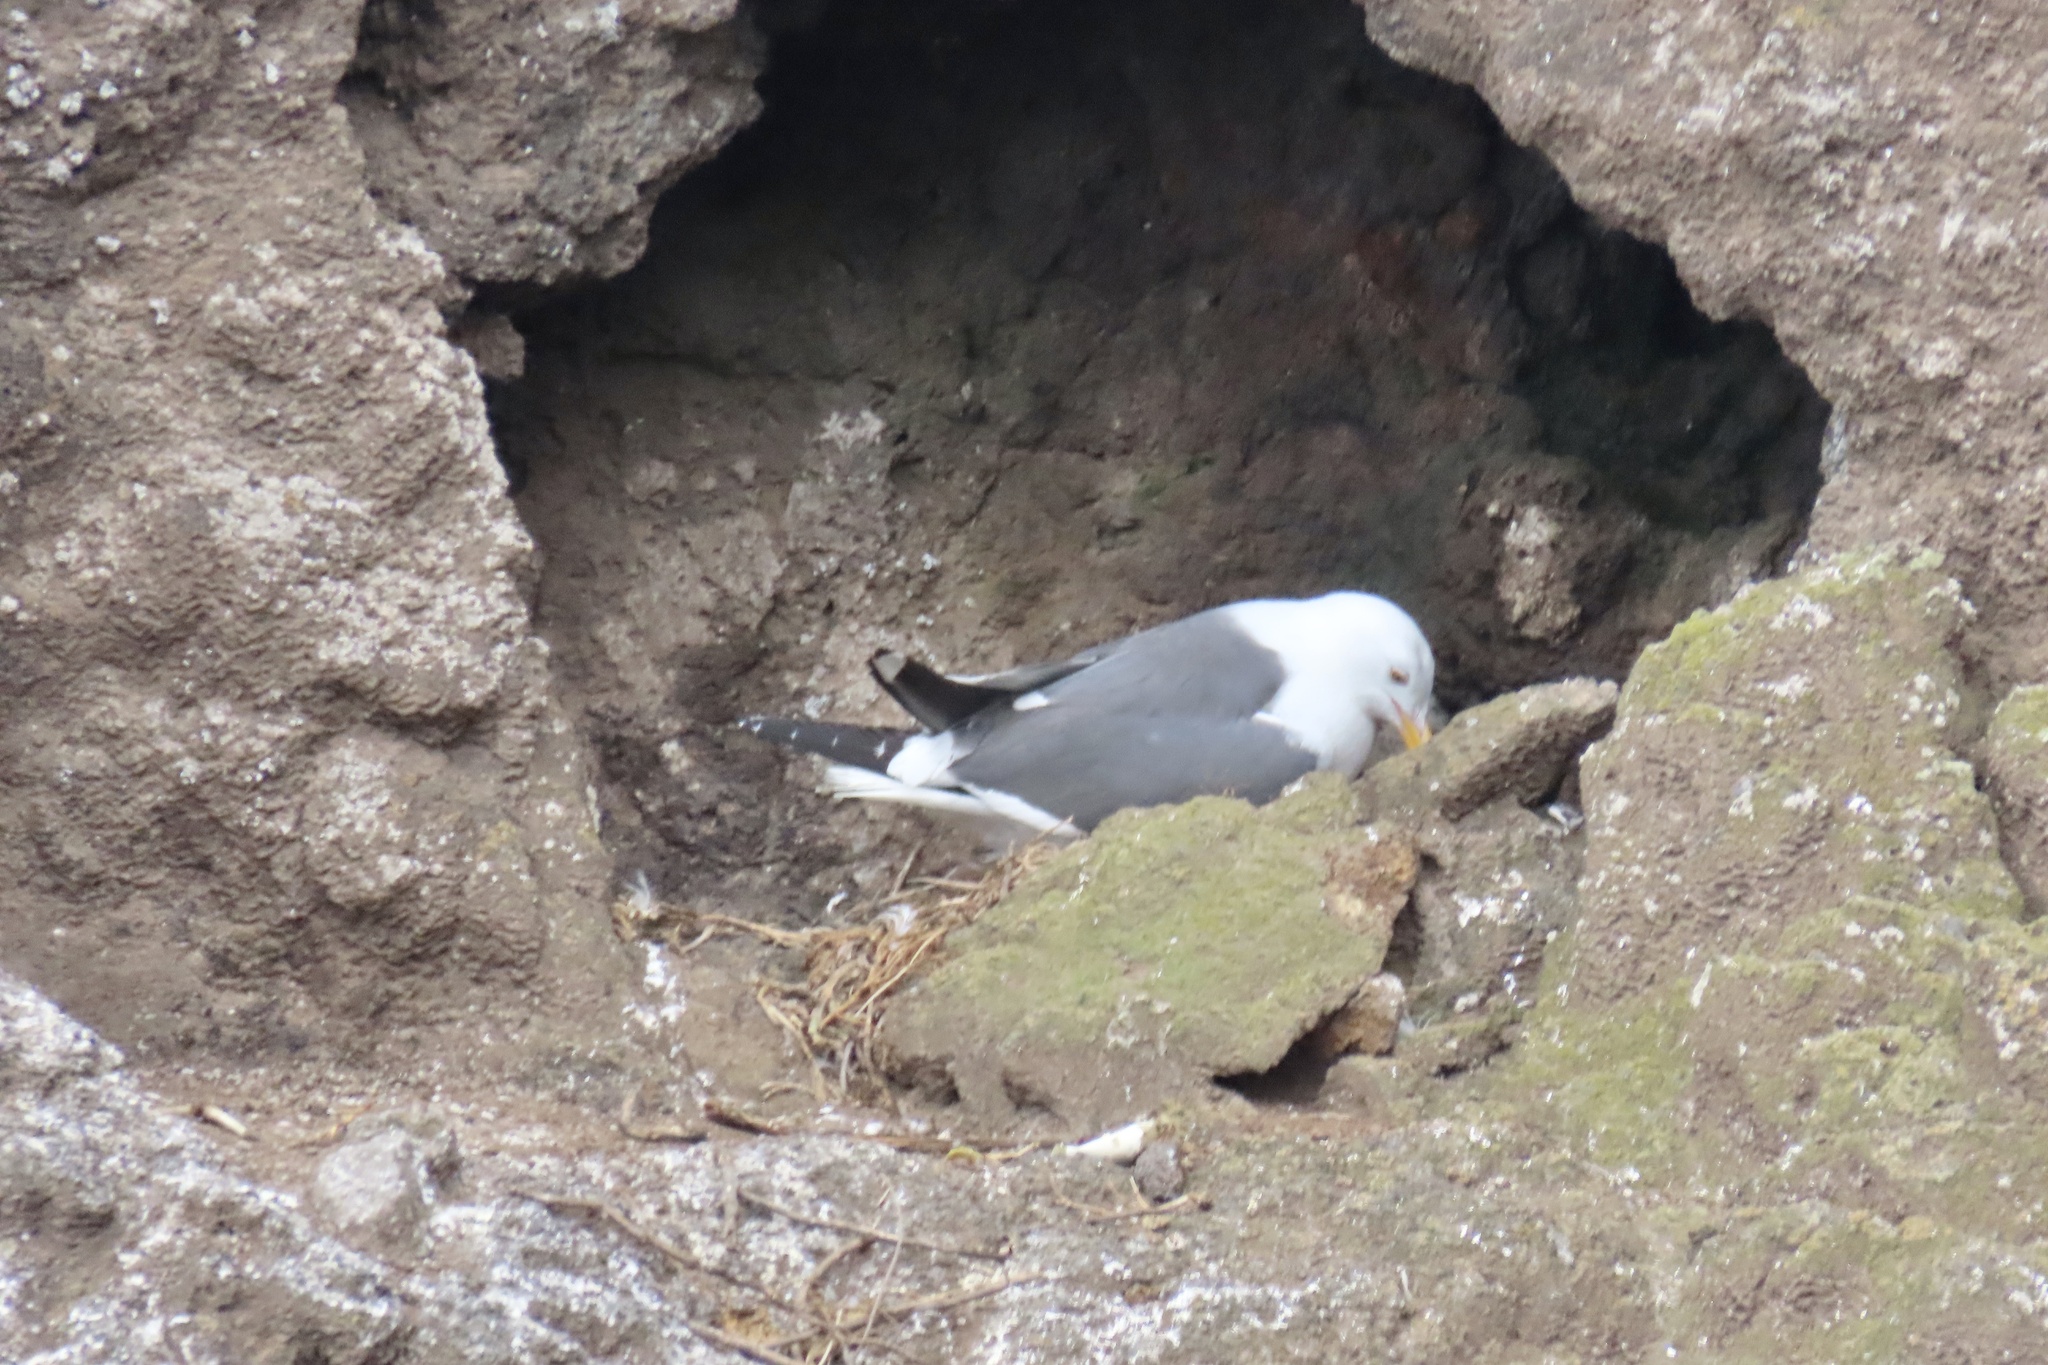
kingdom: Animalia
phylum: Chordata
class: Aves
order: Charadriiformes
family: Laridae
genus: Larus
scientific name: Larus occidentalis
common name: Western gull
